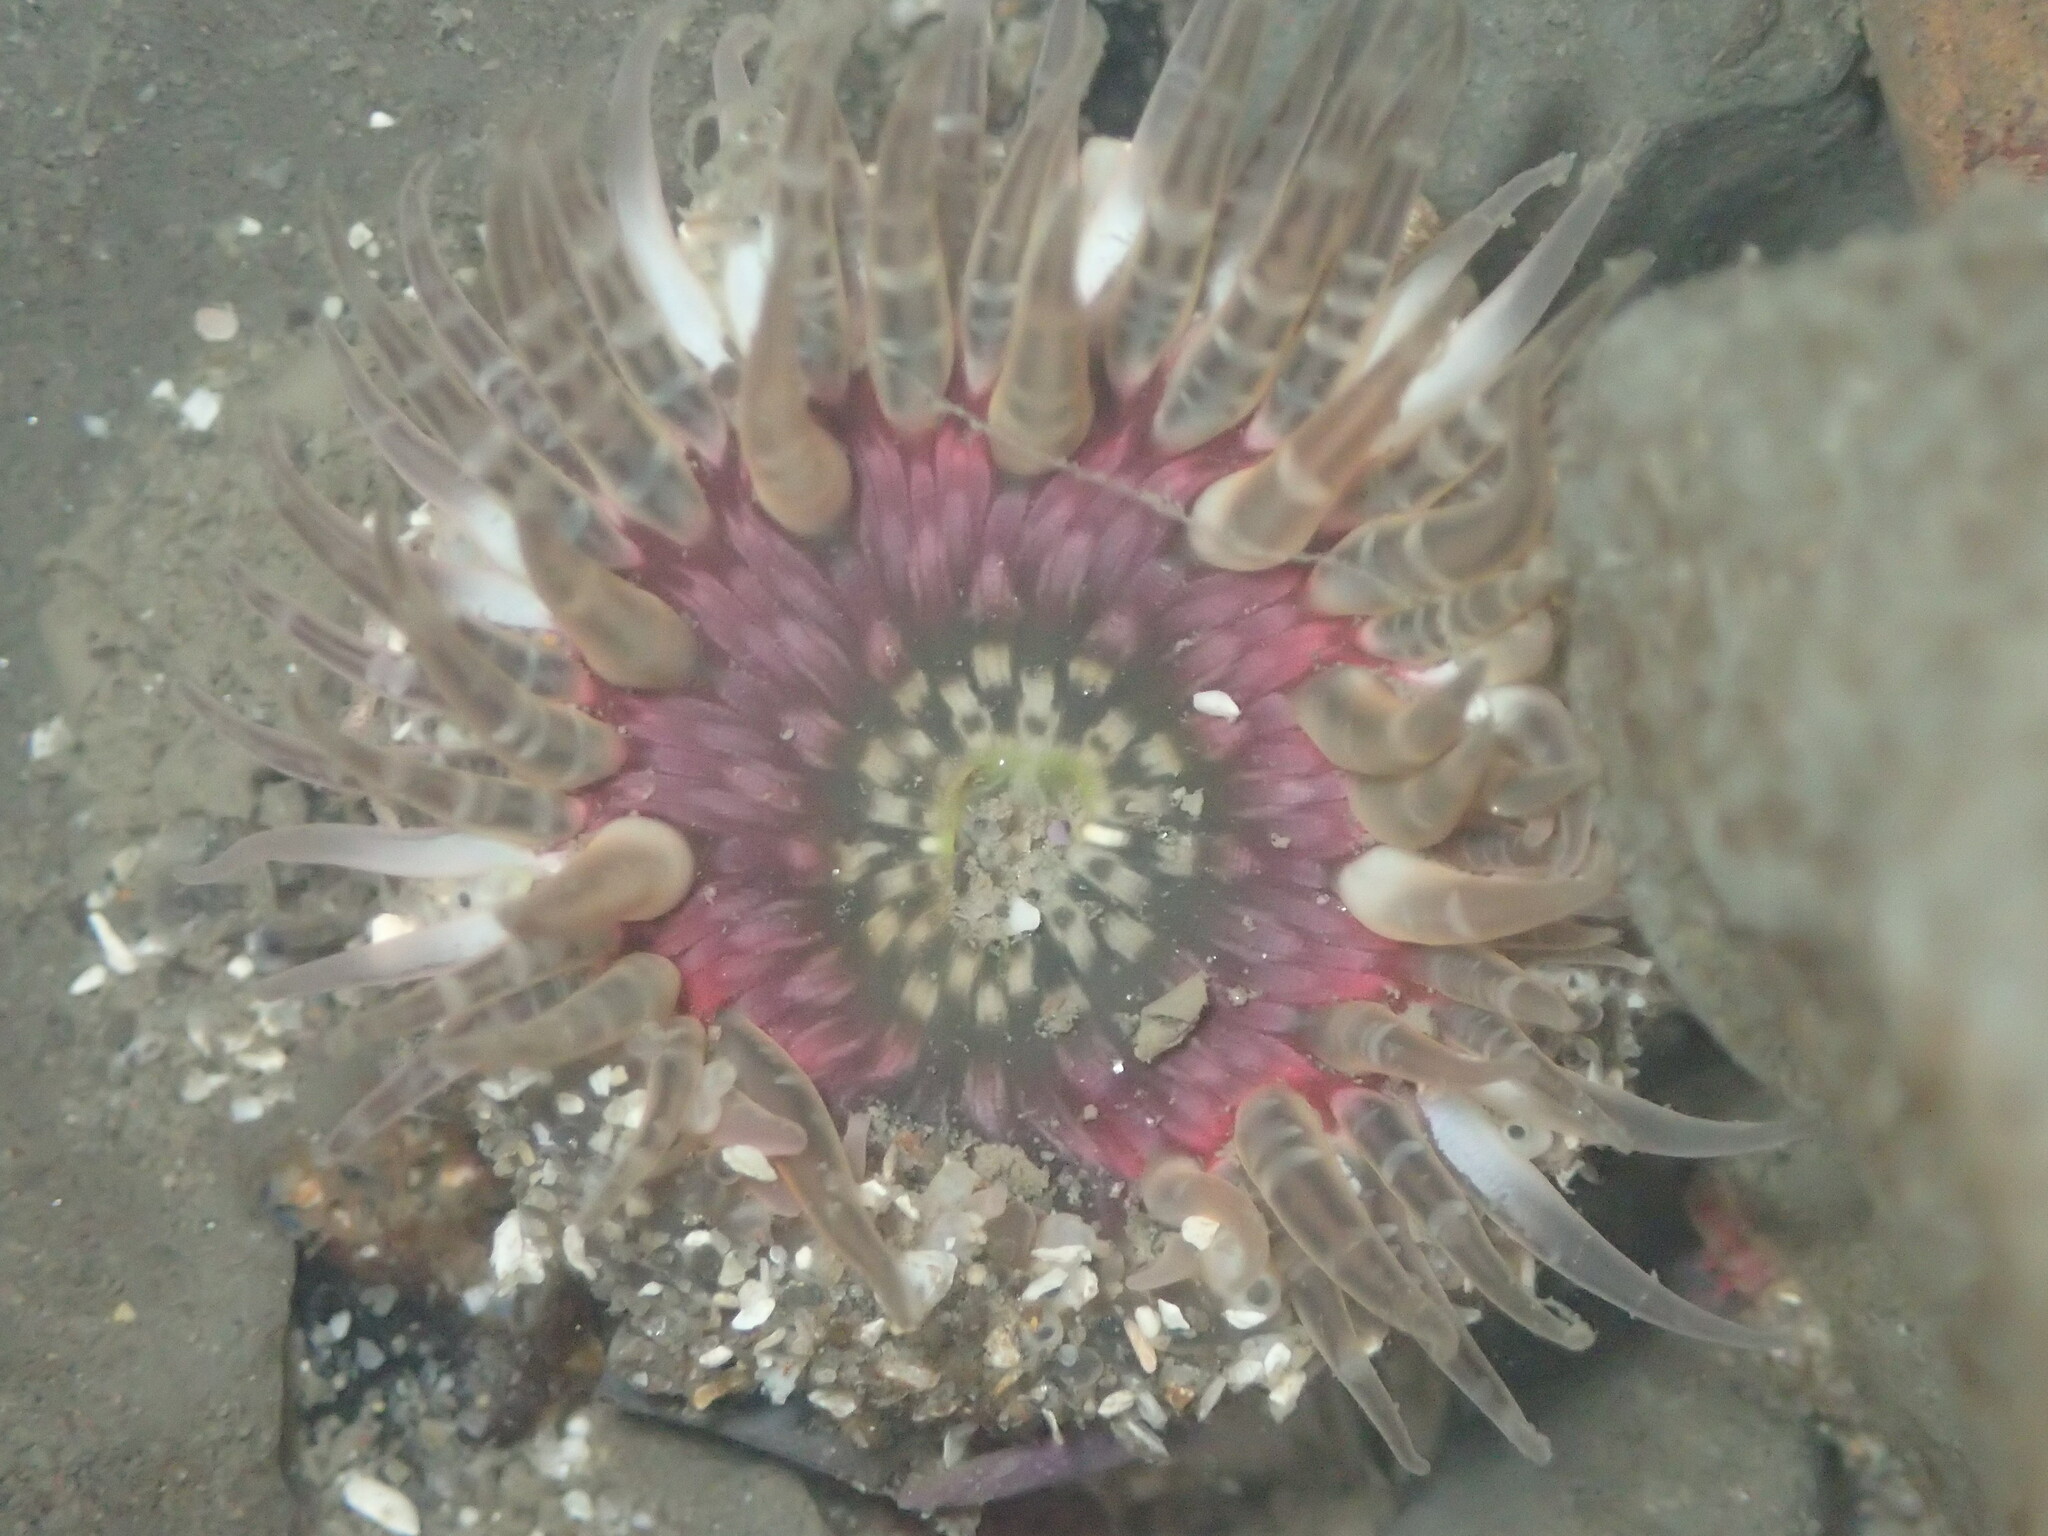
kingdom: Animalia
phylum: Cnidaria
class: Anthozoa
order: Actiniaria
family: Actiniidae
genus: Anthopleura
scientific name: Anthopleura artemisia
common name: Buried sea anemone
